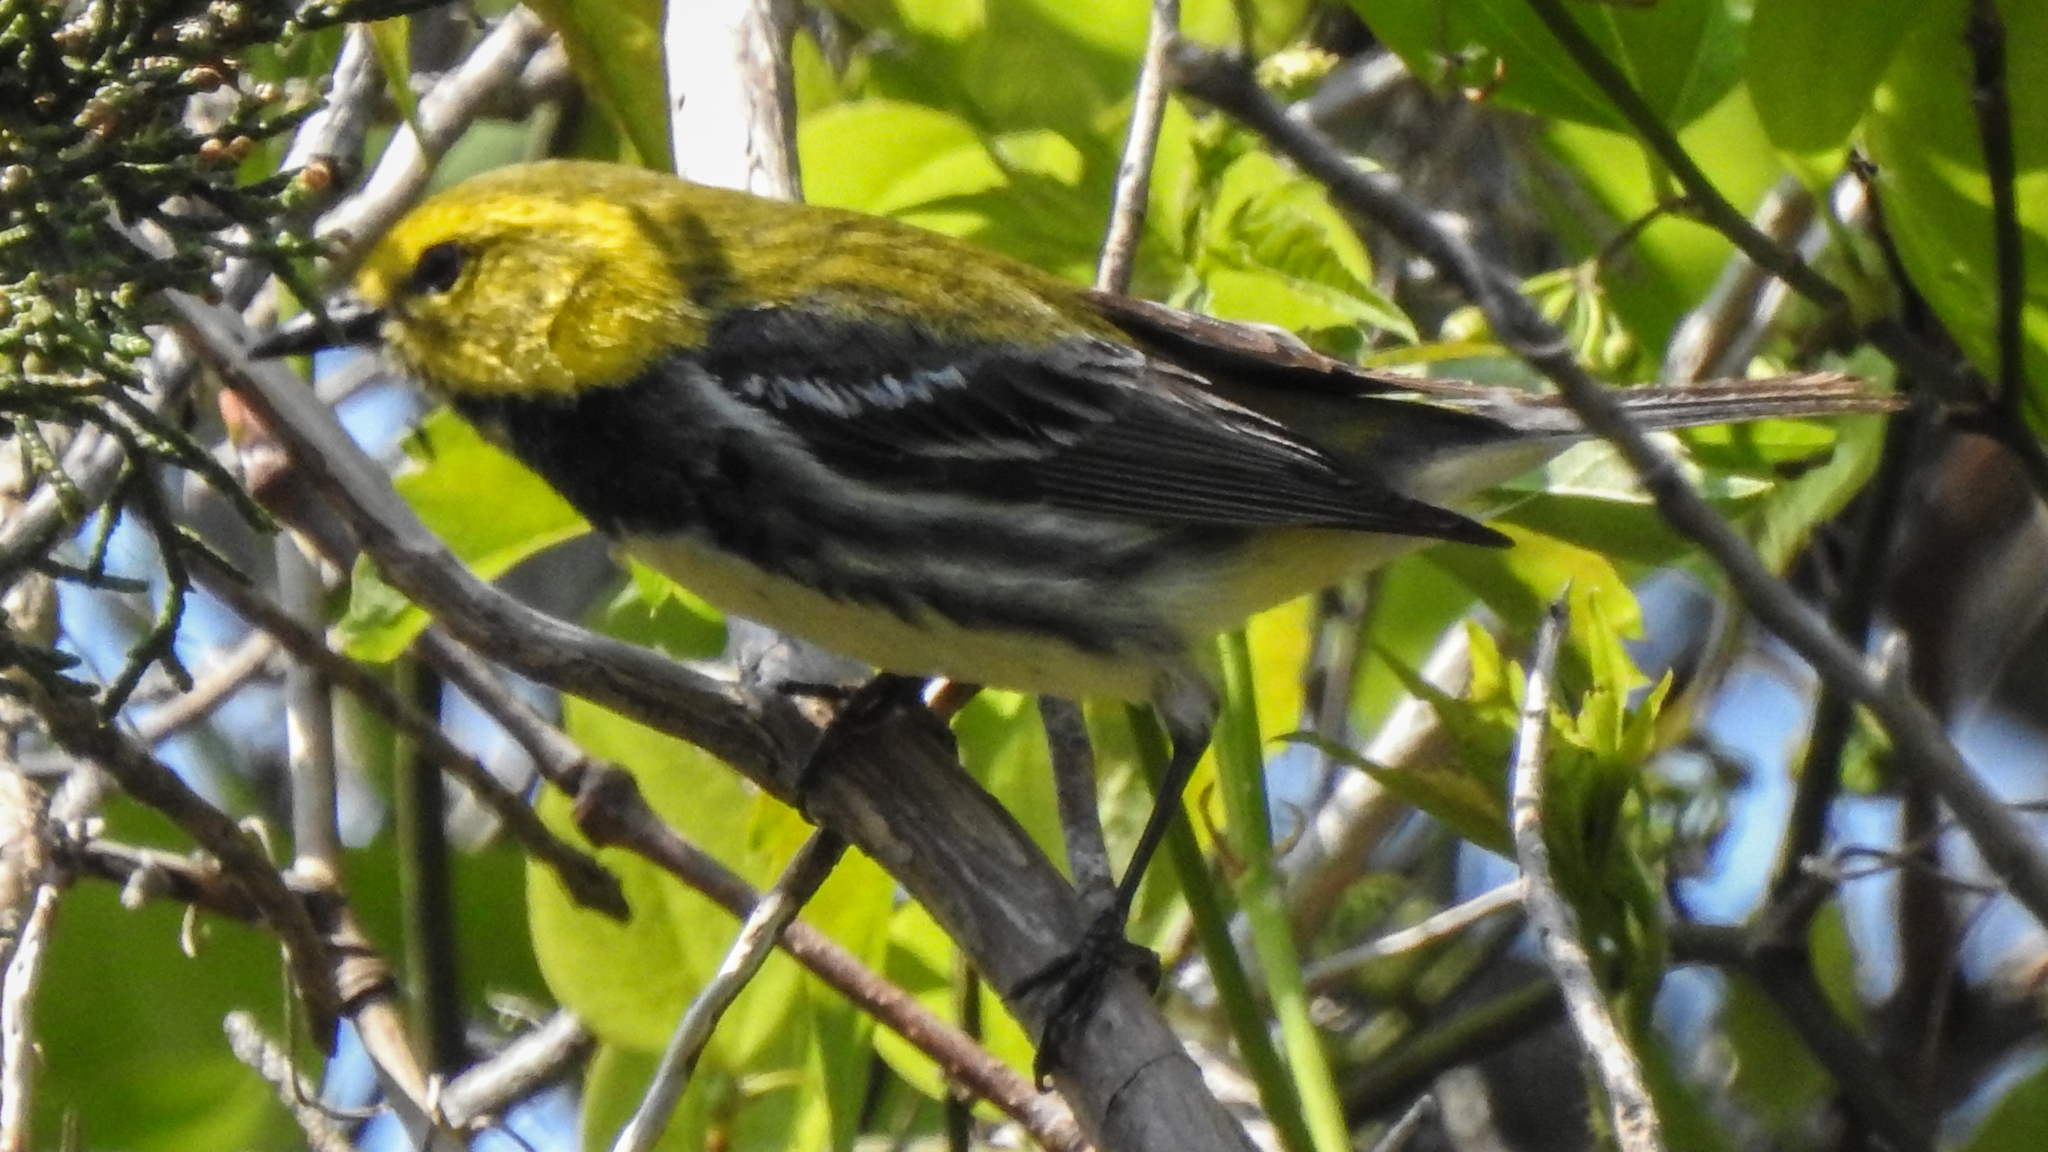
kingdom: Animalia
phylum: Chordata
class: Aves
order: Passeriformes
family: Parulidae
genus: Setophaga
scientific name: Setophaga virens
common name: Black-throated green warbler
